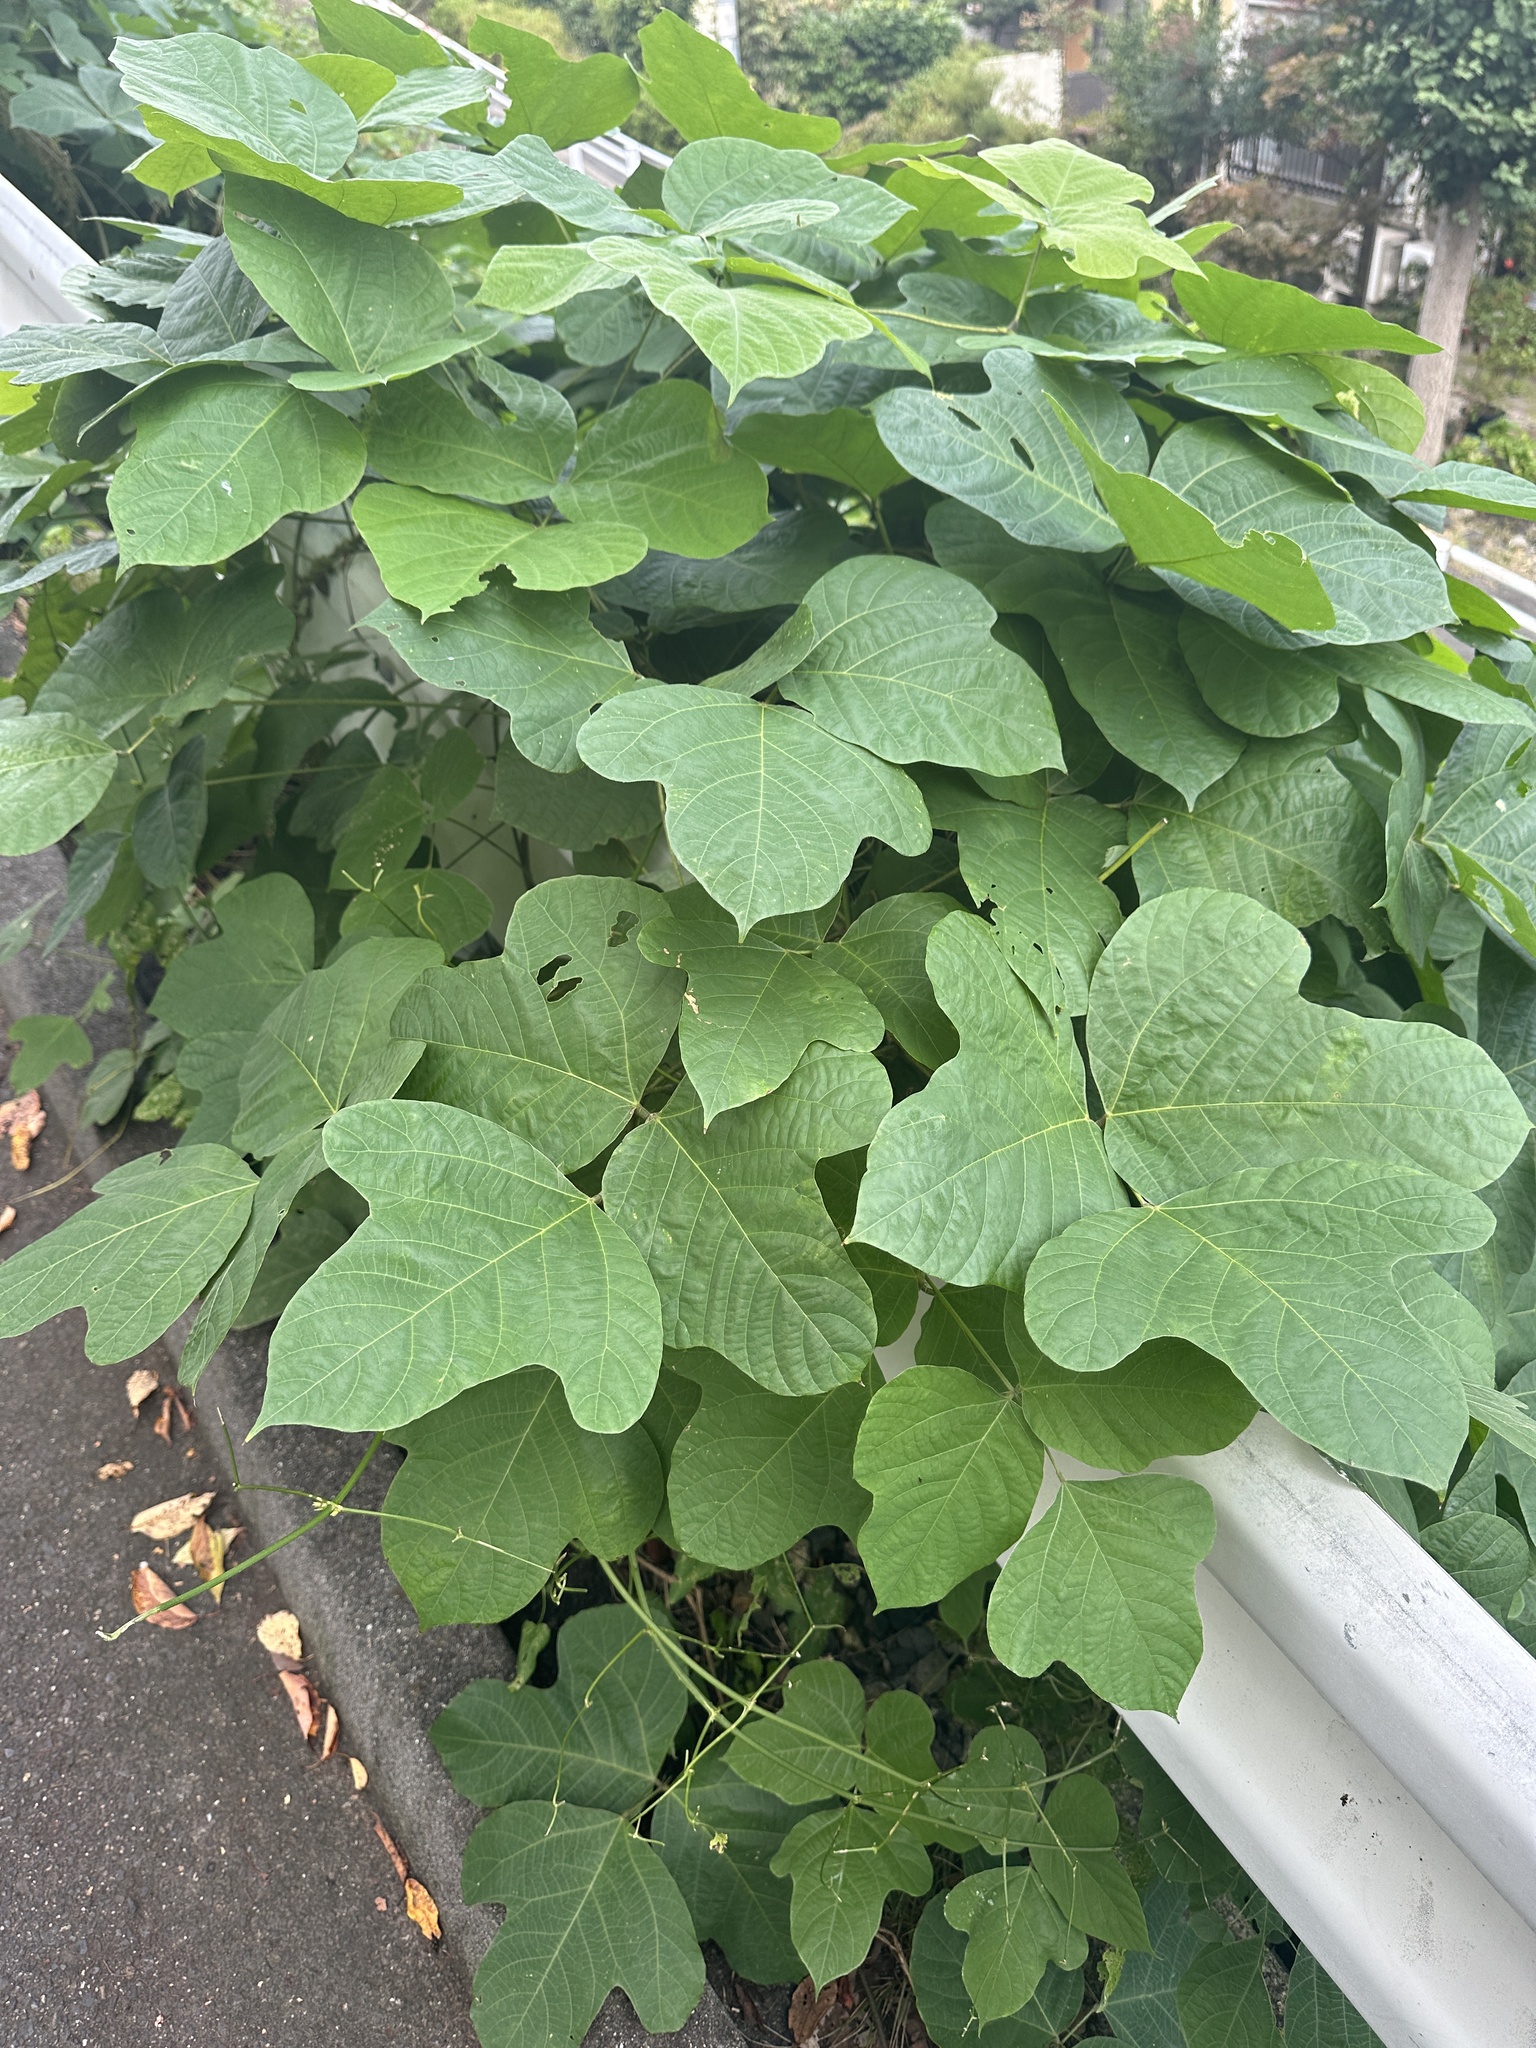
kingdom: Plantae
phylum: Tracheophyta
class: Magnoliopsida
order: Fabales
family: Fabaceae
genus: Pueraria
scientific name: Pueraria montana
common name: Kudzu
